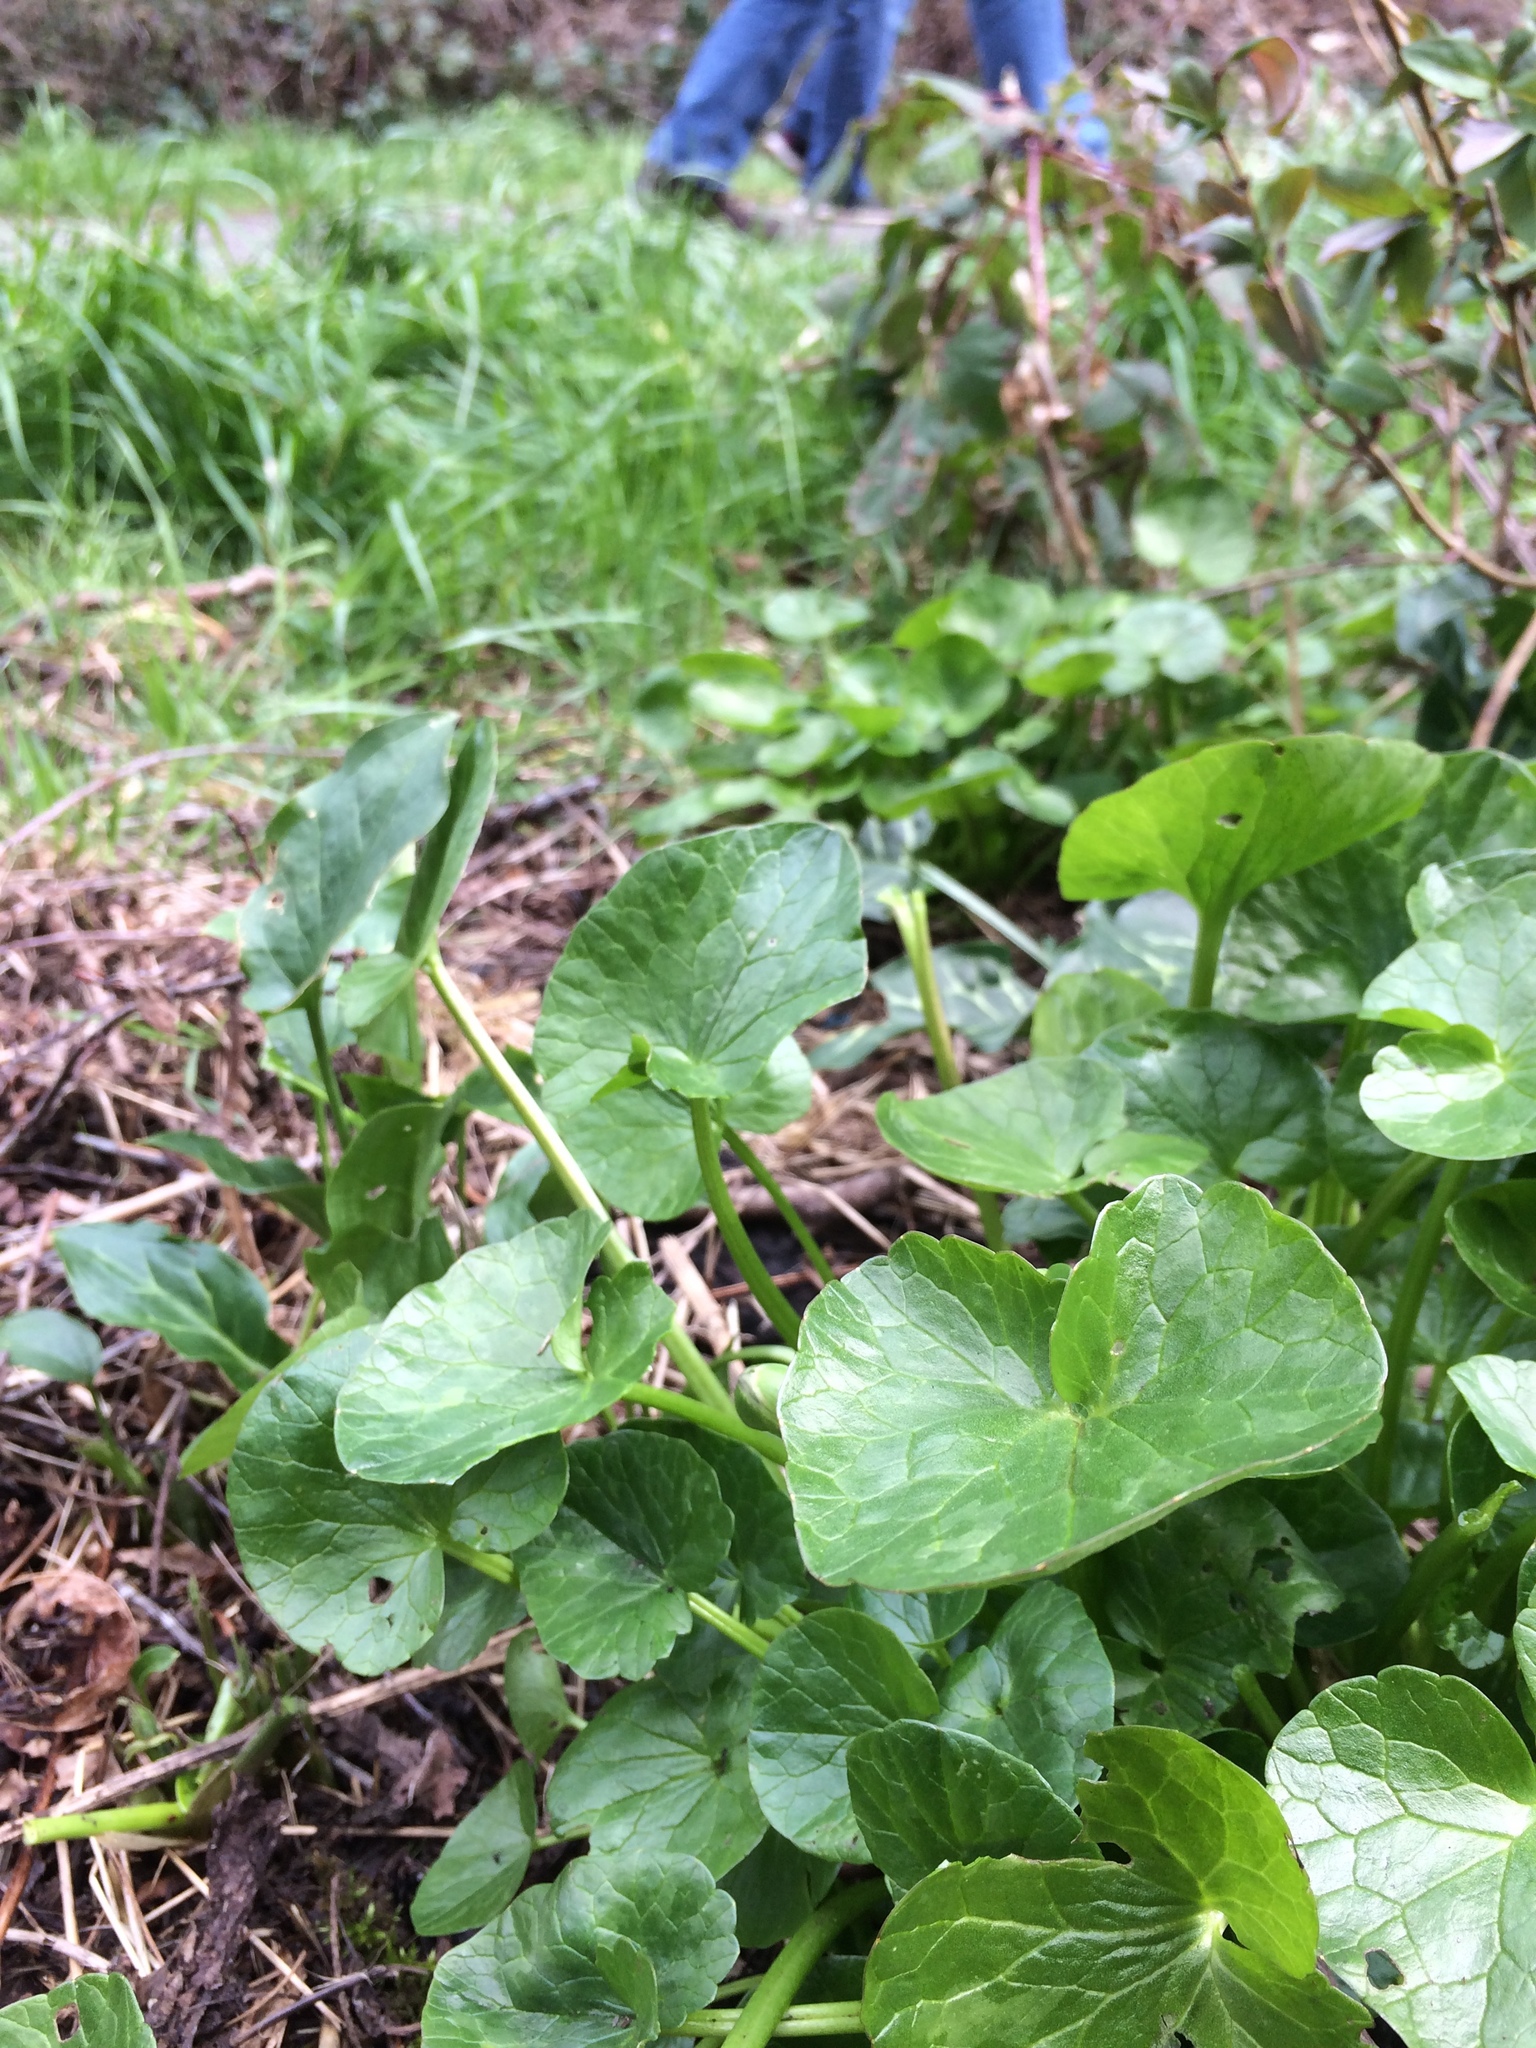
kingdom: Plantae
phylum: Tracheophyta
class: Magnoliopsida
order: Ranunculales
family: Ranunculaceae
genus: Ficaria
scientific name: Ficaria verna
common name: Lesser celandine
